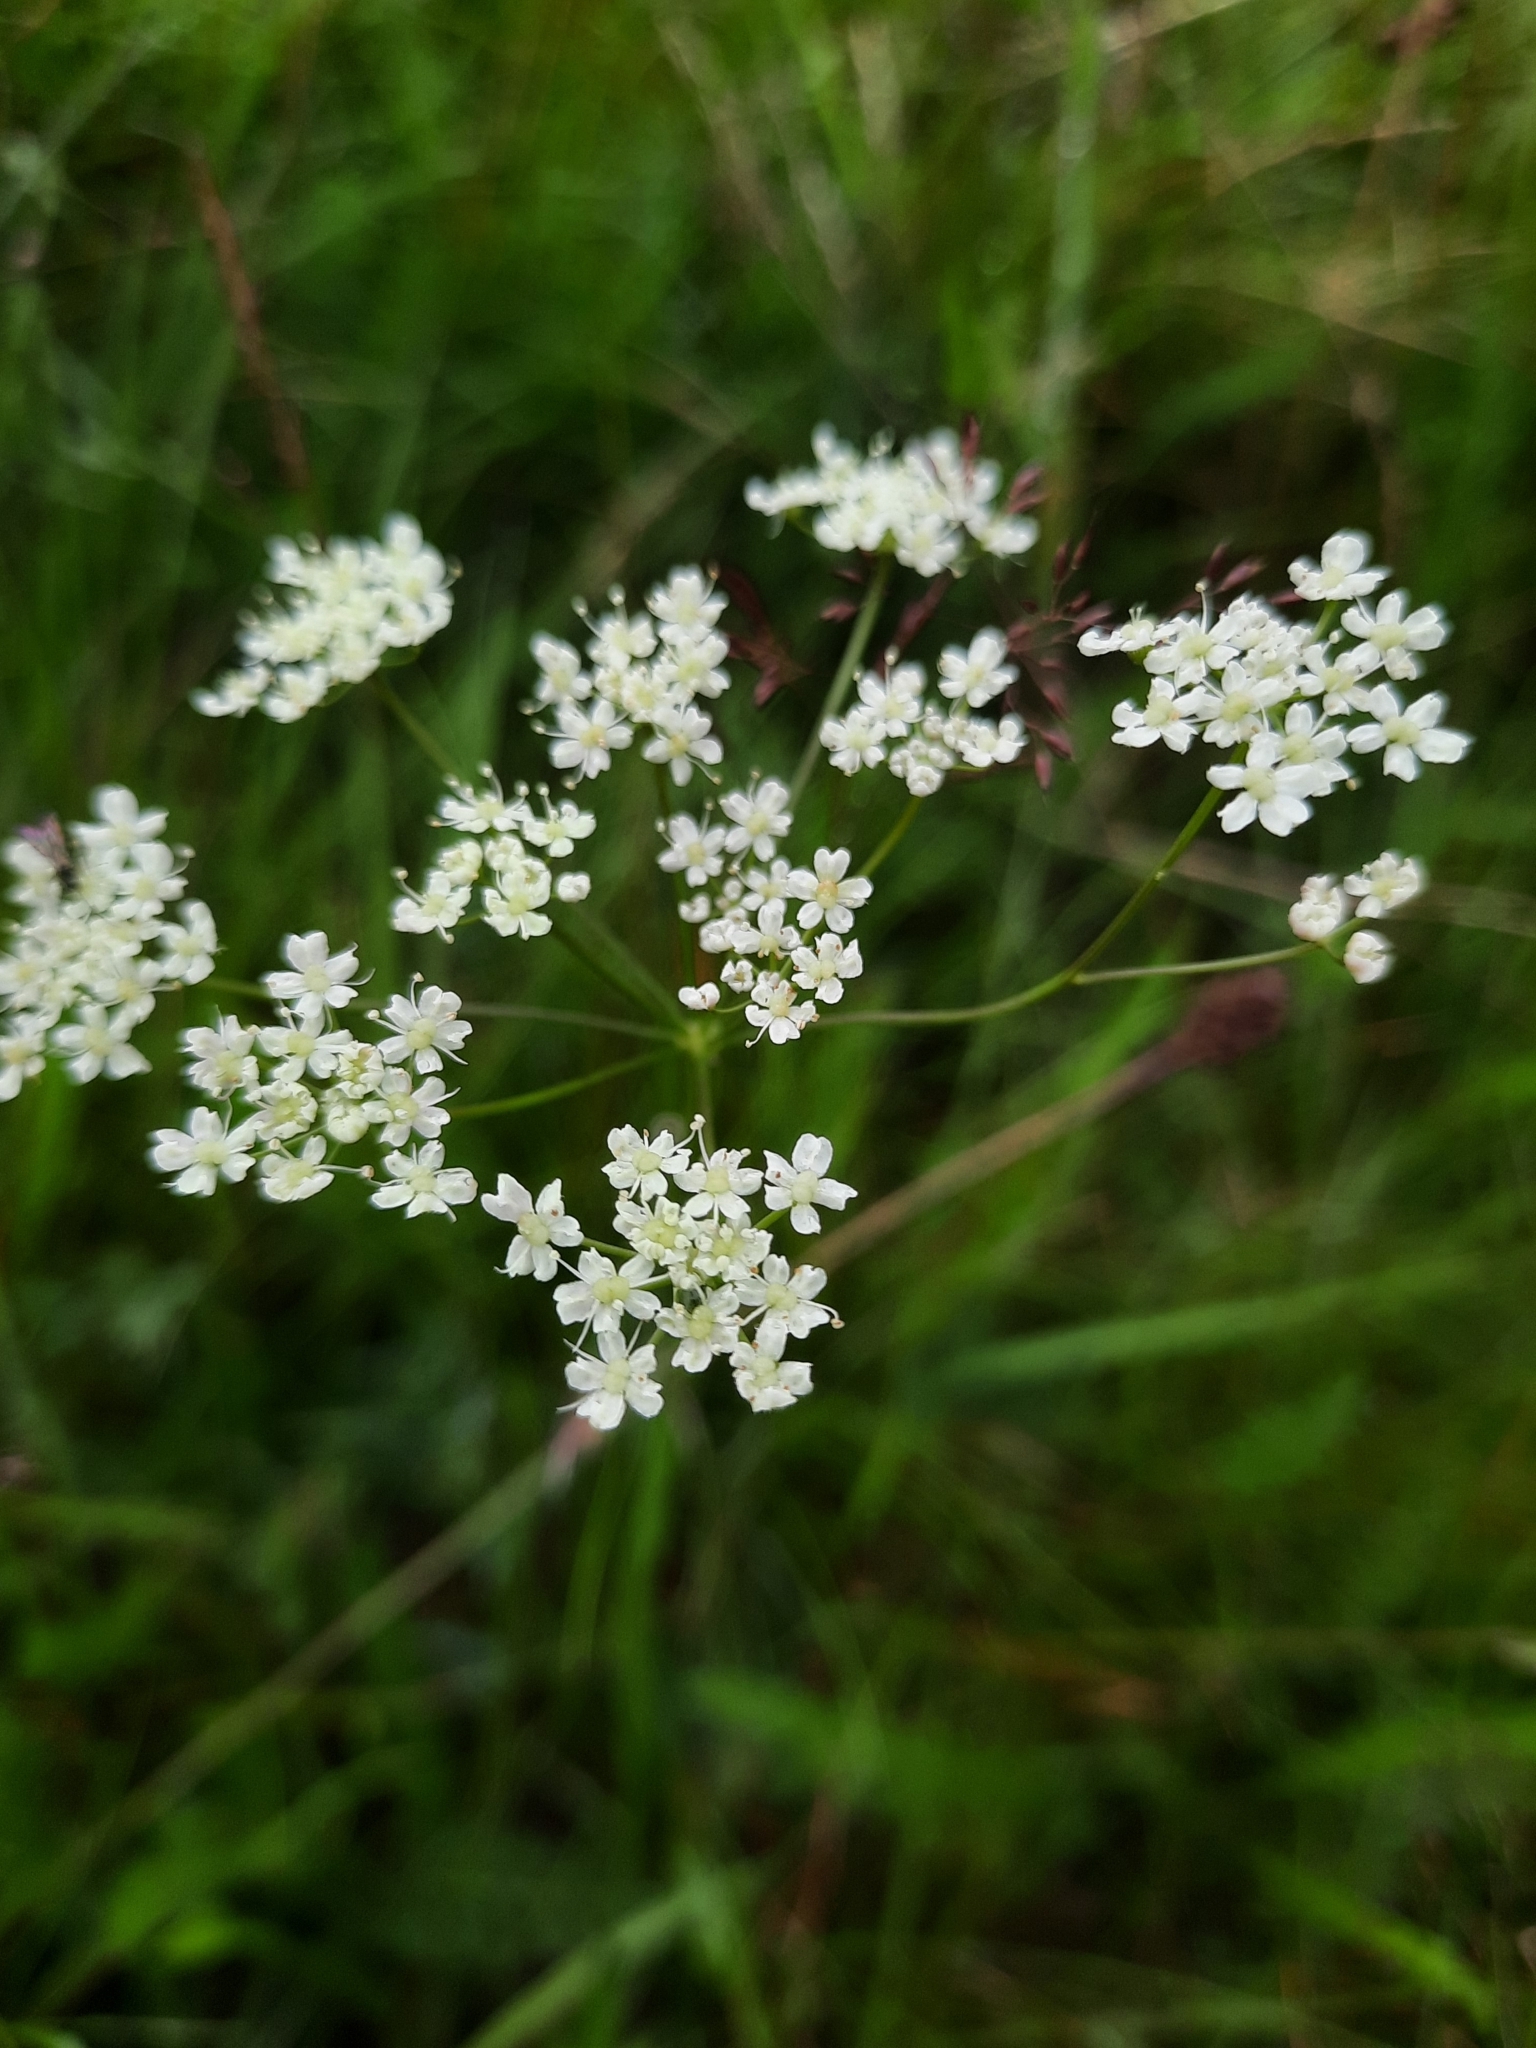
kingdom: Plantae
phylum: Tracheophyta
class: Magnoliopsida
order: Apiales
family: Apiaceae
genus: Pimpinella
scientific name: Pimpinella saxifraga
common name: Burnet-saxifrage
